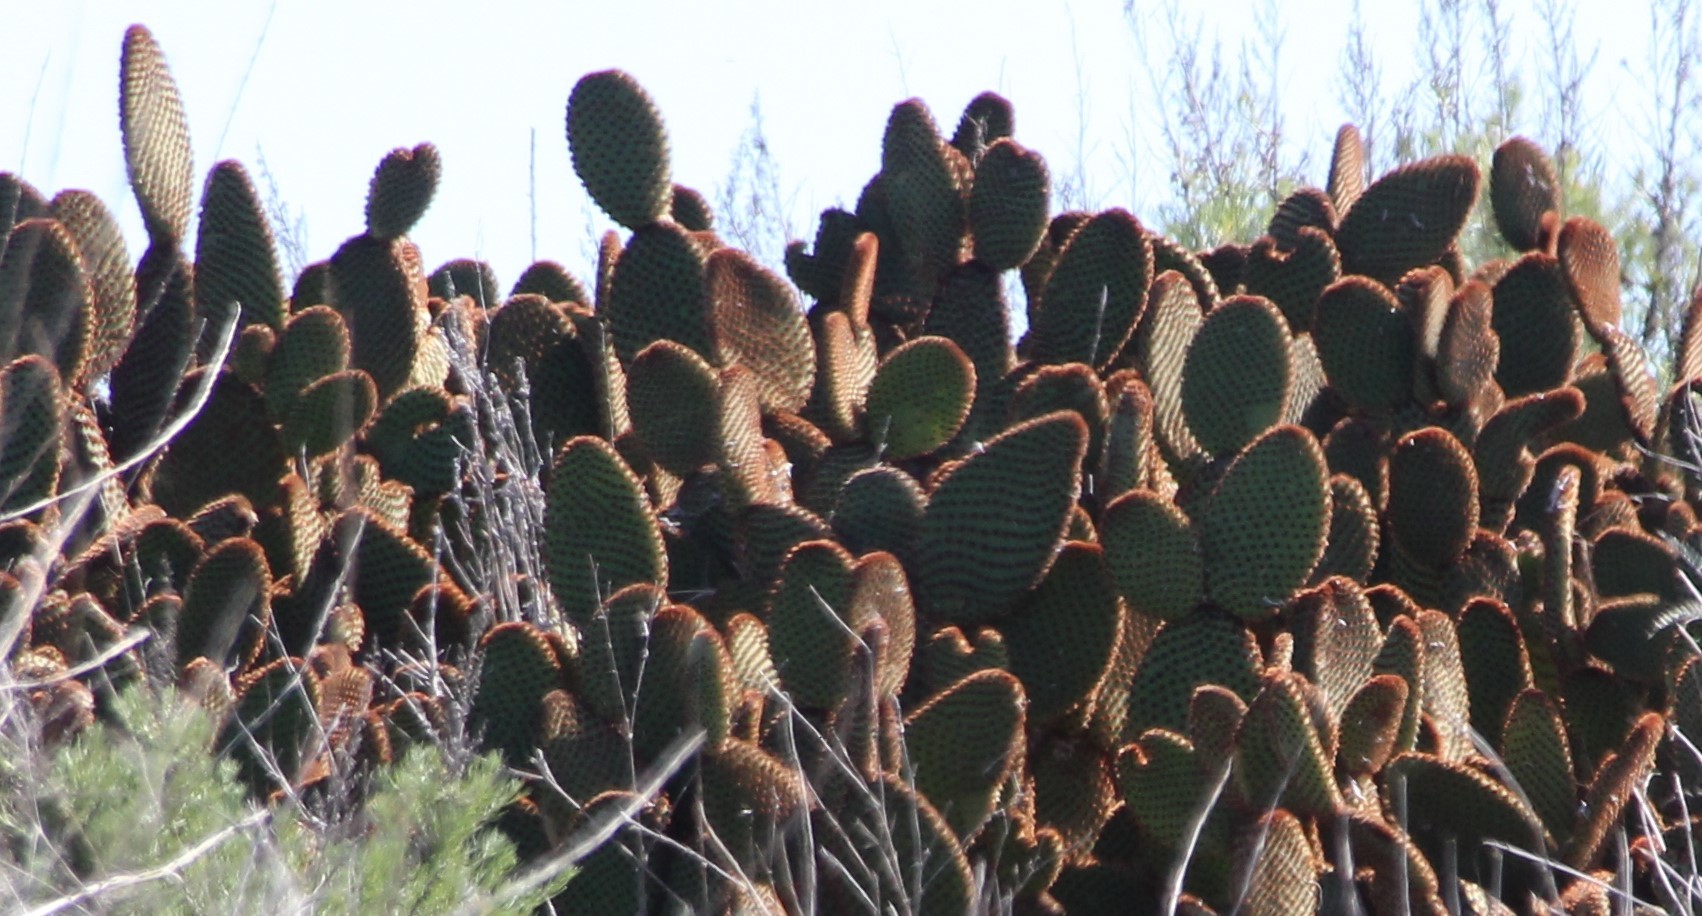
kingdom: Plantae
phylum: Tracheophyta
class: Magnoliopsida
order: Caryophyllales
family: Cactaceae
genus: Opuntia
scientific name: Opuntia microdasys
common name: Angel's-wings
